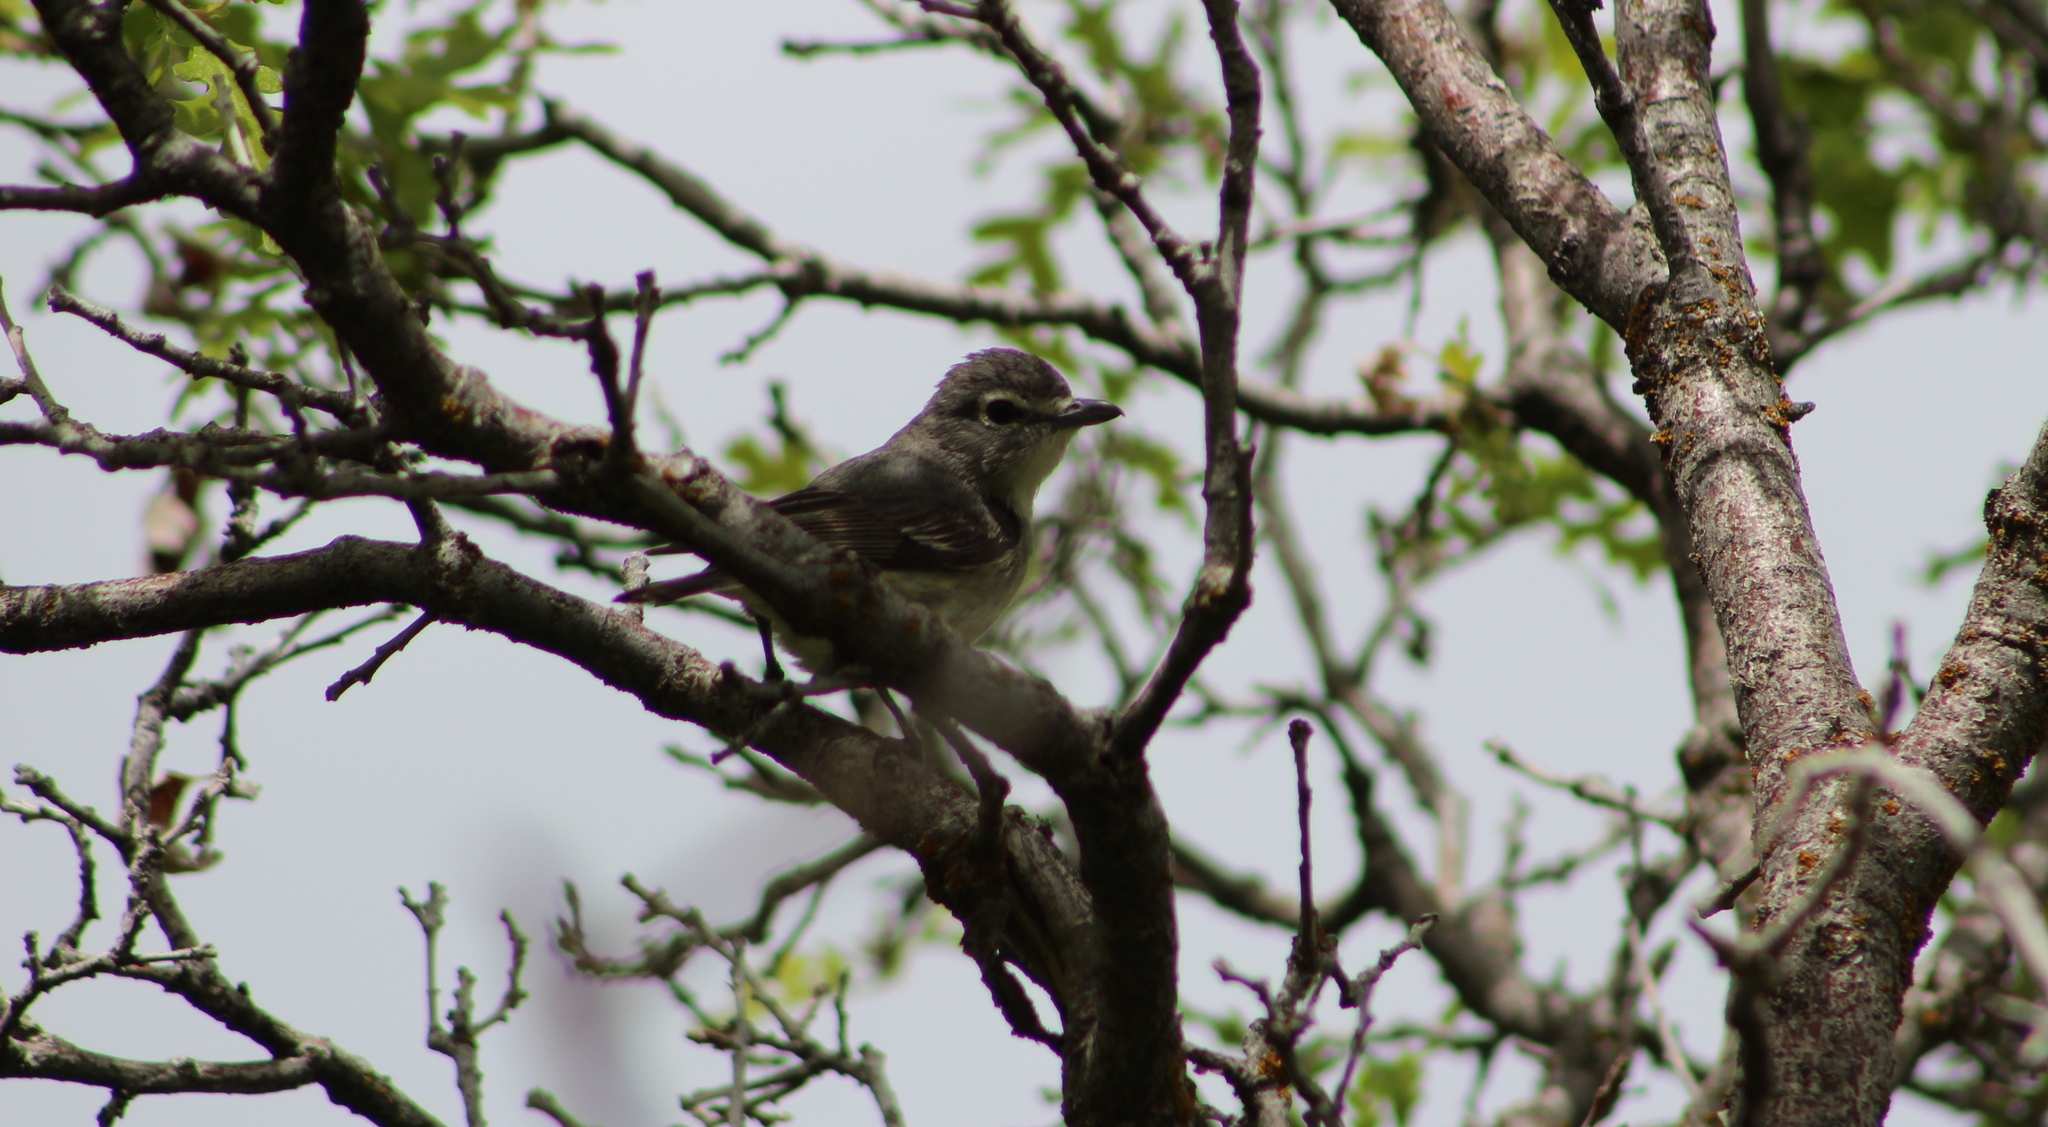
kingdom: Animalia
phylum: Chordata
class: Aves
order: Passeriformes
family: Vireonidae
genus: Vireo
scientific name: Vireo plumbeus
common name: Plumbeous vireo
